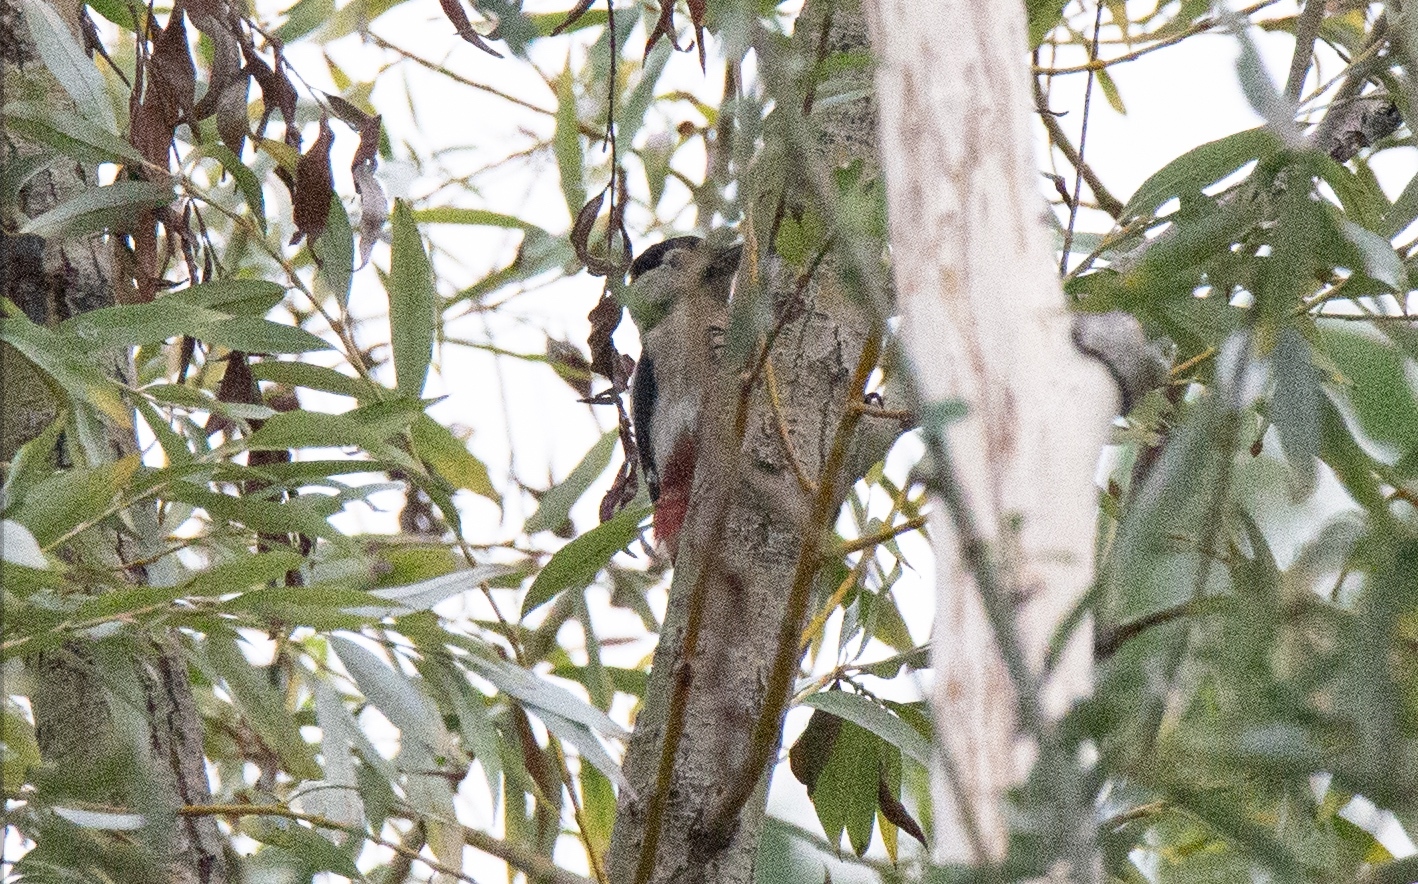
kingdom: Animalia
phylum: Chordata
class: Aves
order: Piciformes
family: Picidae
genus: Dendrocopos
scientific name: Dendrocopos major
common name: Great spotted woodpecker
